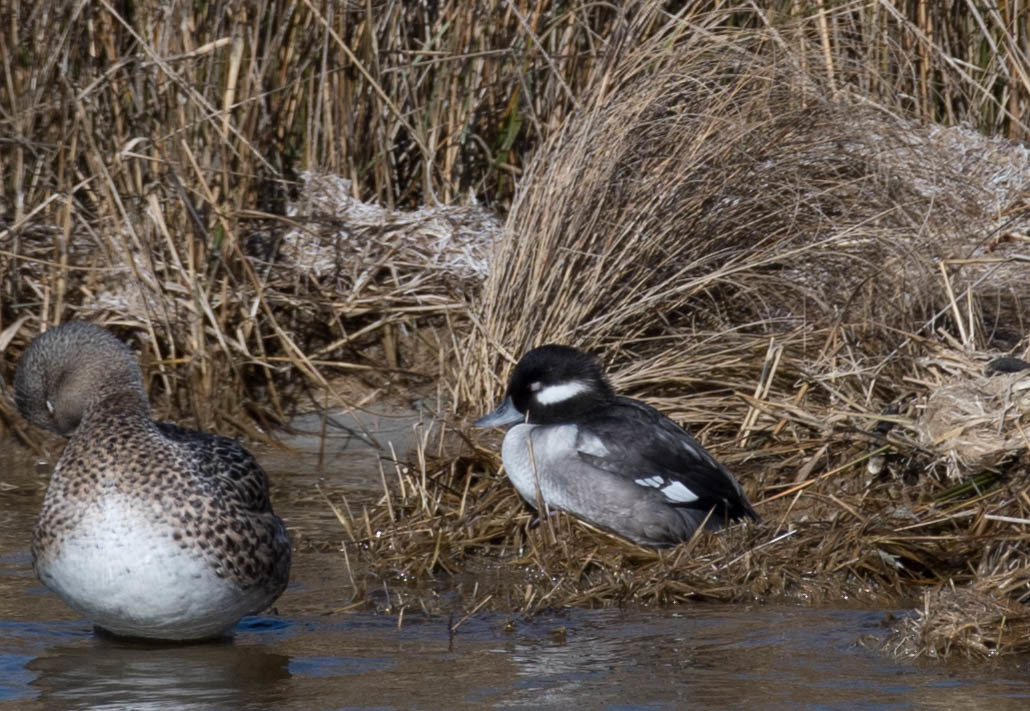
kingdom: Animalia
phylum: Chordata
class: Aves
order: Anseriformes
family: Anatidae
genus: Bucephala
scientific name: Bucephala albeola
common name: Bufflehead
